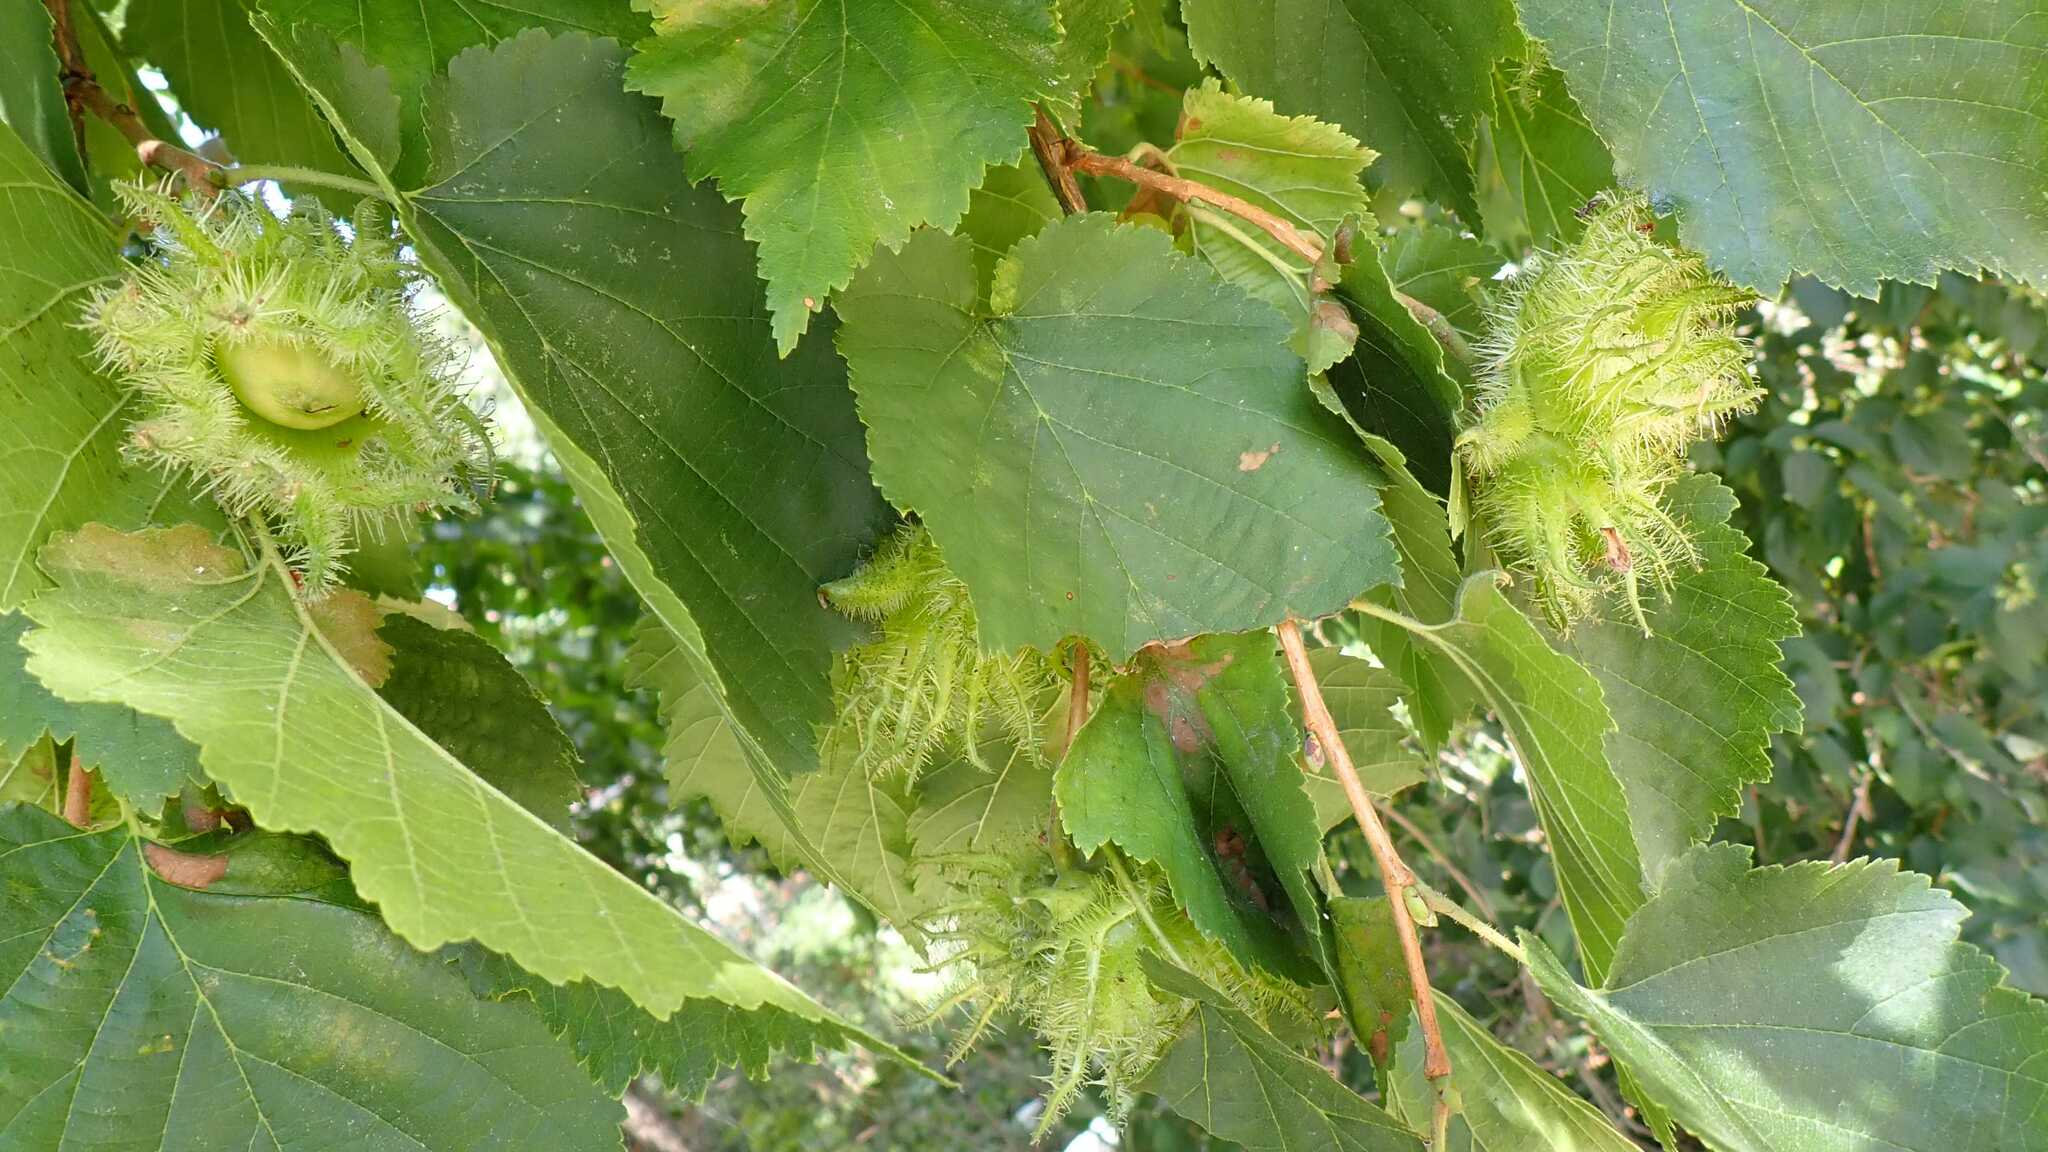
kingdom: Animalia
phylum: Arthropoda
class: Insecta
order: Hemiptera
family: Cicadellidae
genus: Alebra
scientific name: Alebra coryli
